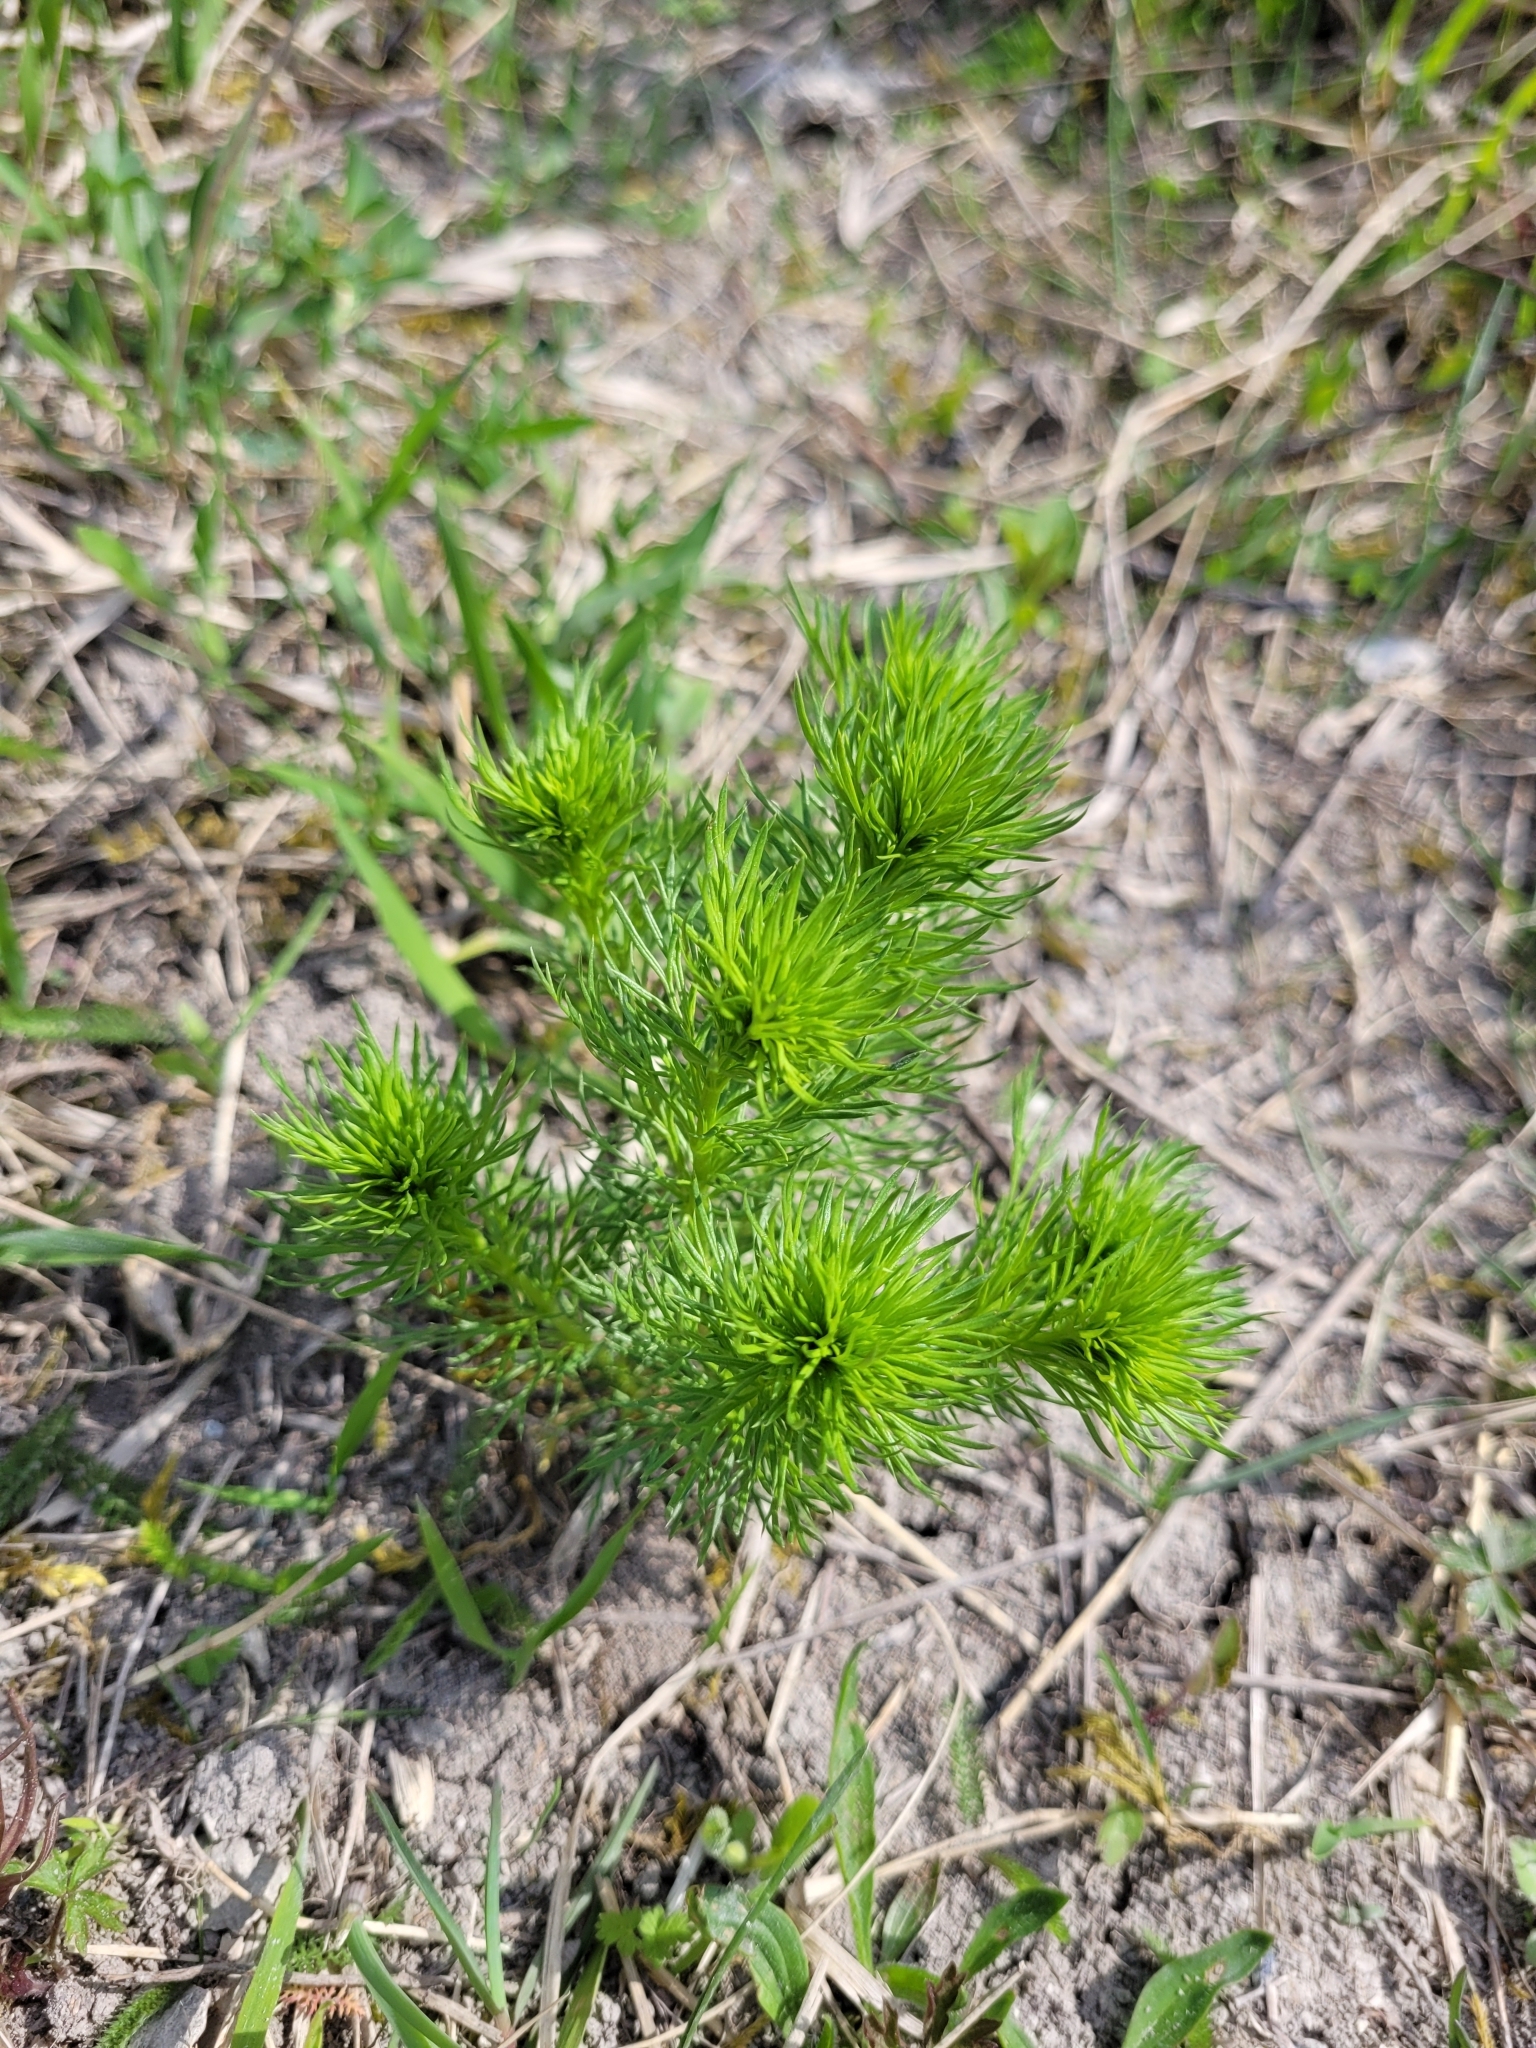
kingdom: Plantae
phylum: Tracheophyta
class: Magnoliopsida
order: Ranunculales
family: Ranunculaceae
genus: Adonis
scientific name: Adonis vernalis
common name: Yellow pheasants-eye
